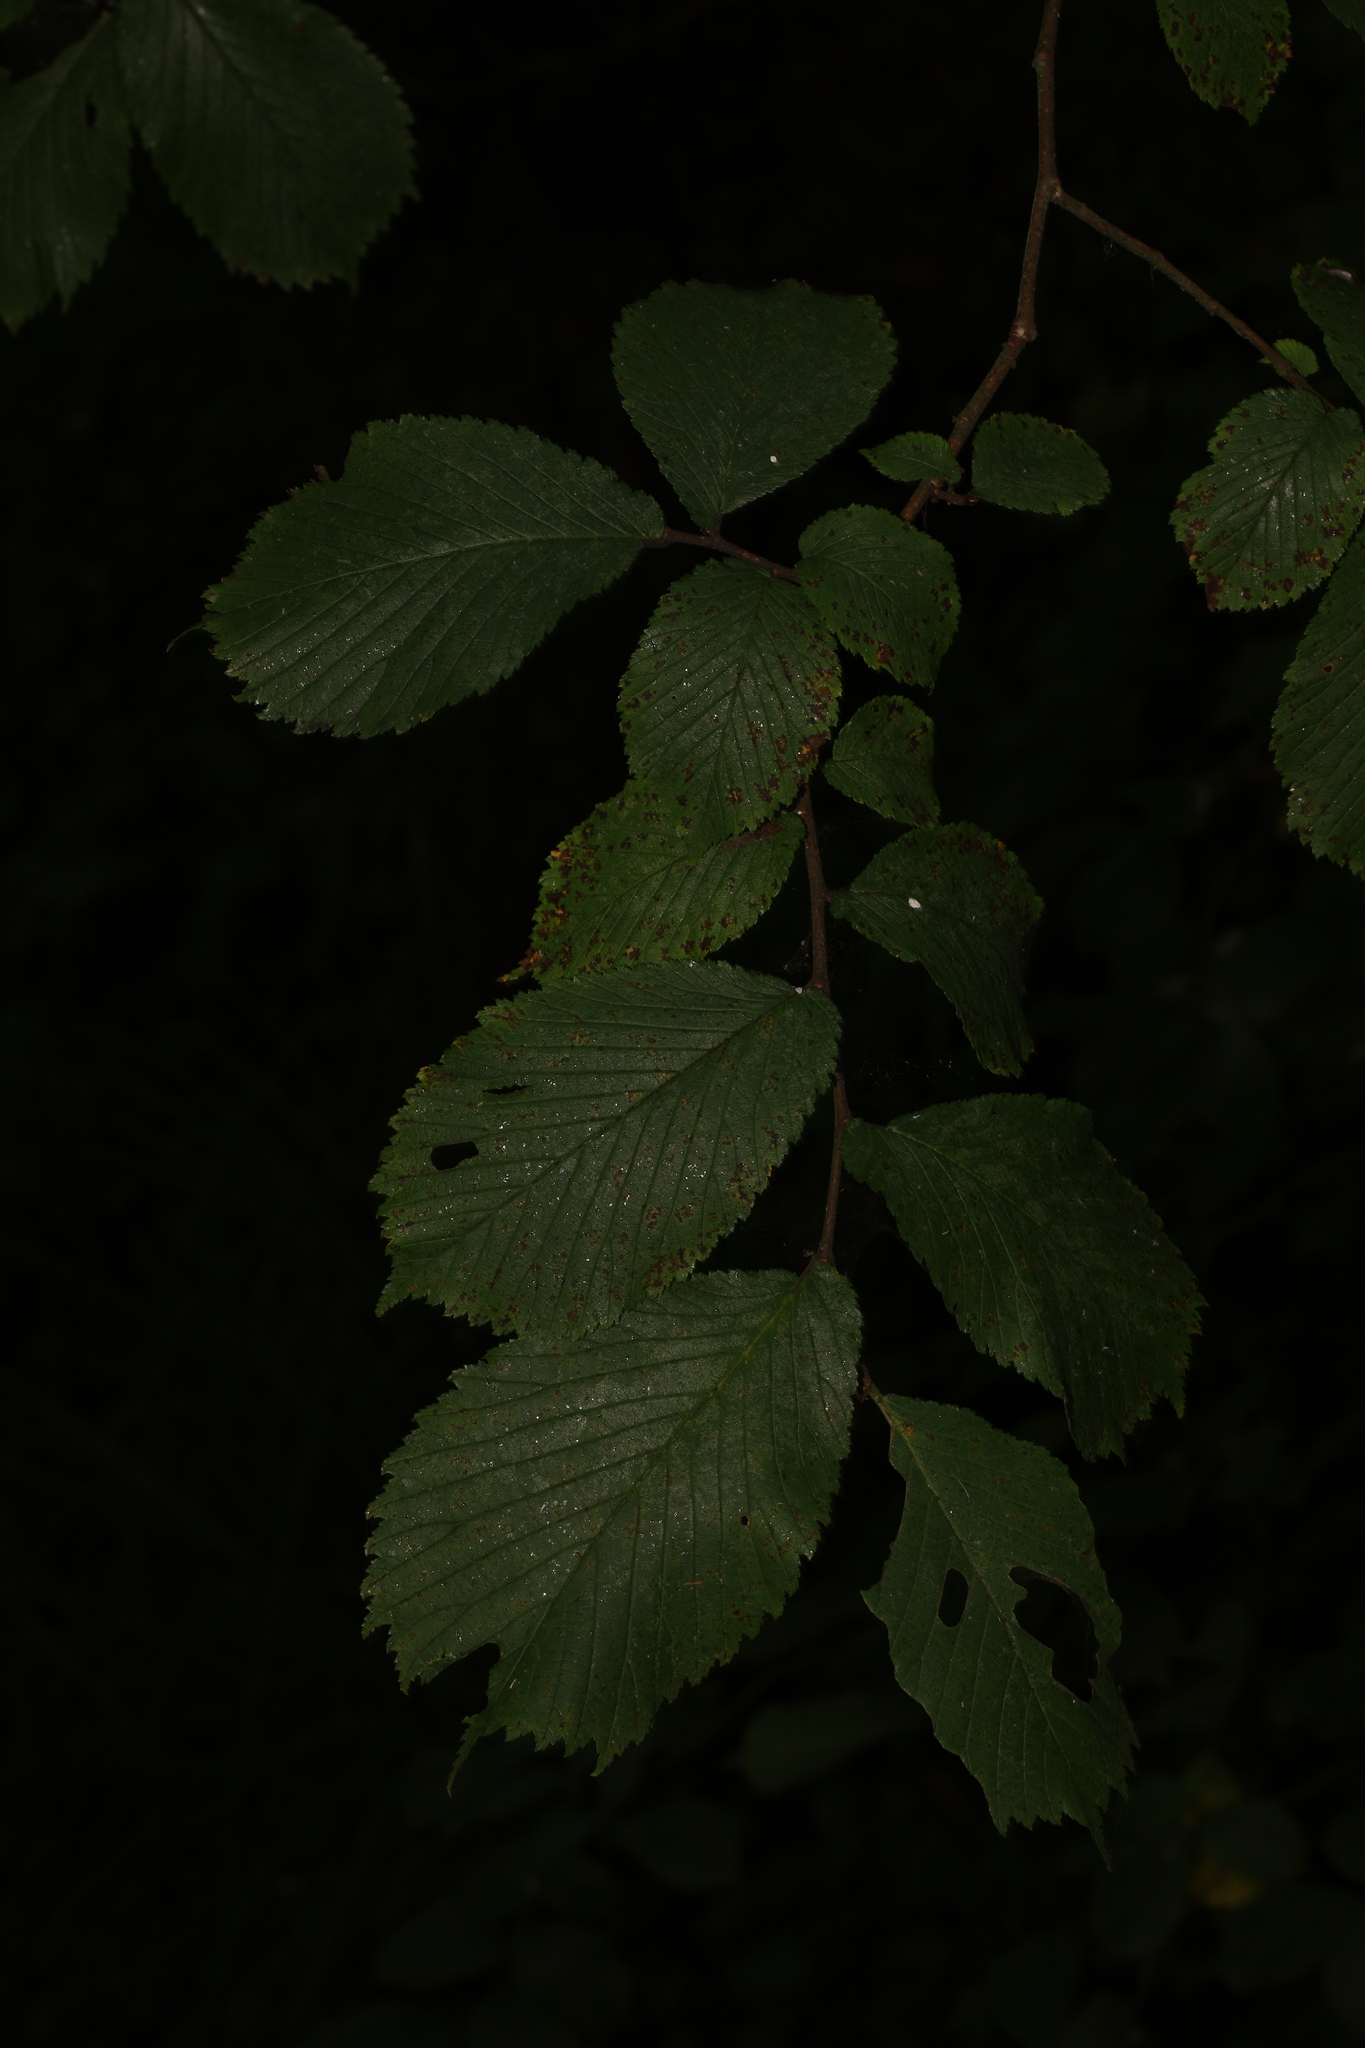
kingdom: Plantae
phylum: Tracheophyta
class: Magnoliopsida
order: Rosales
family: Ulmaceae
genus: Ulmus
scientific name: Ulmus glabra
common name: Wych elm
